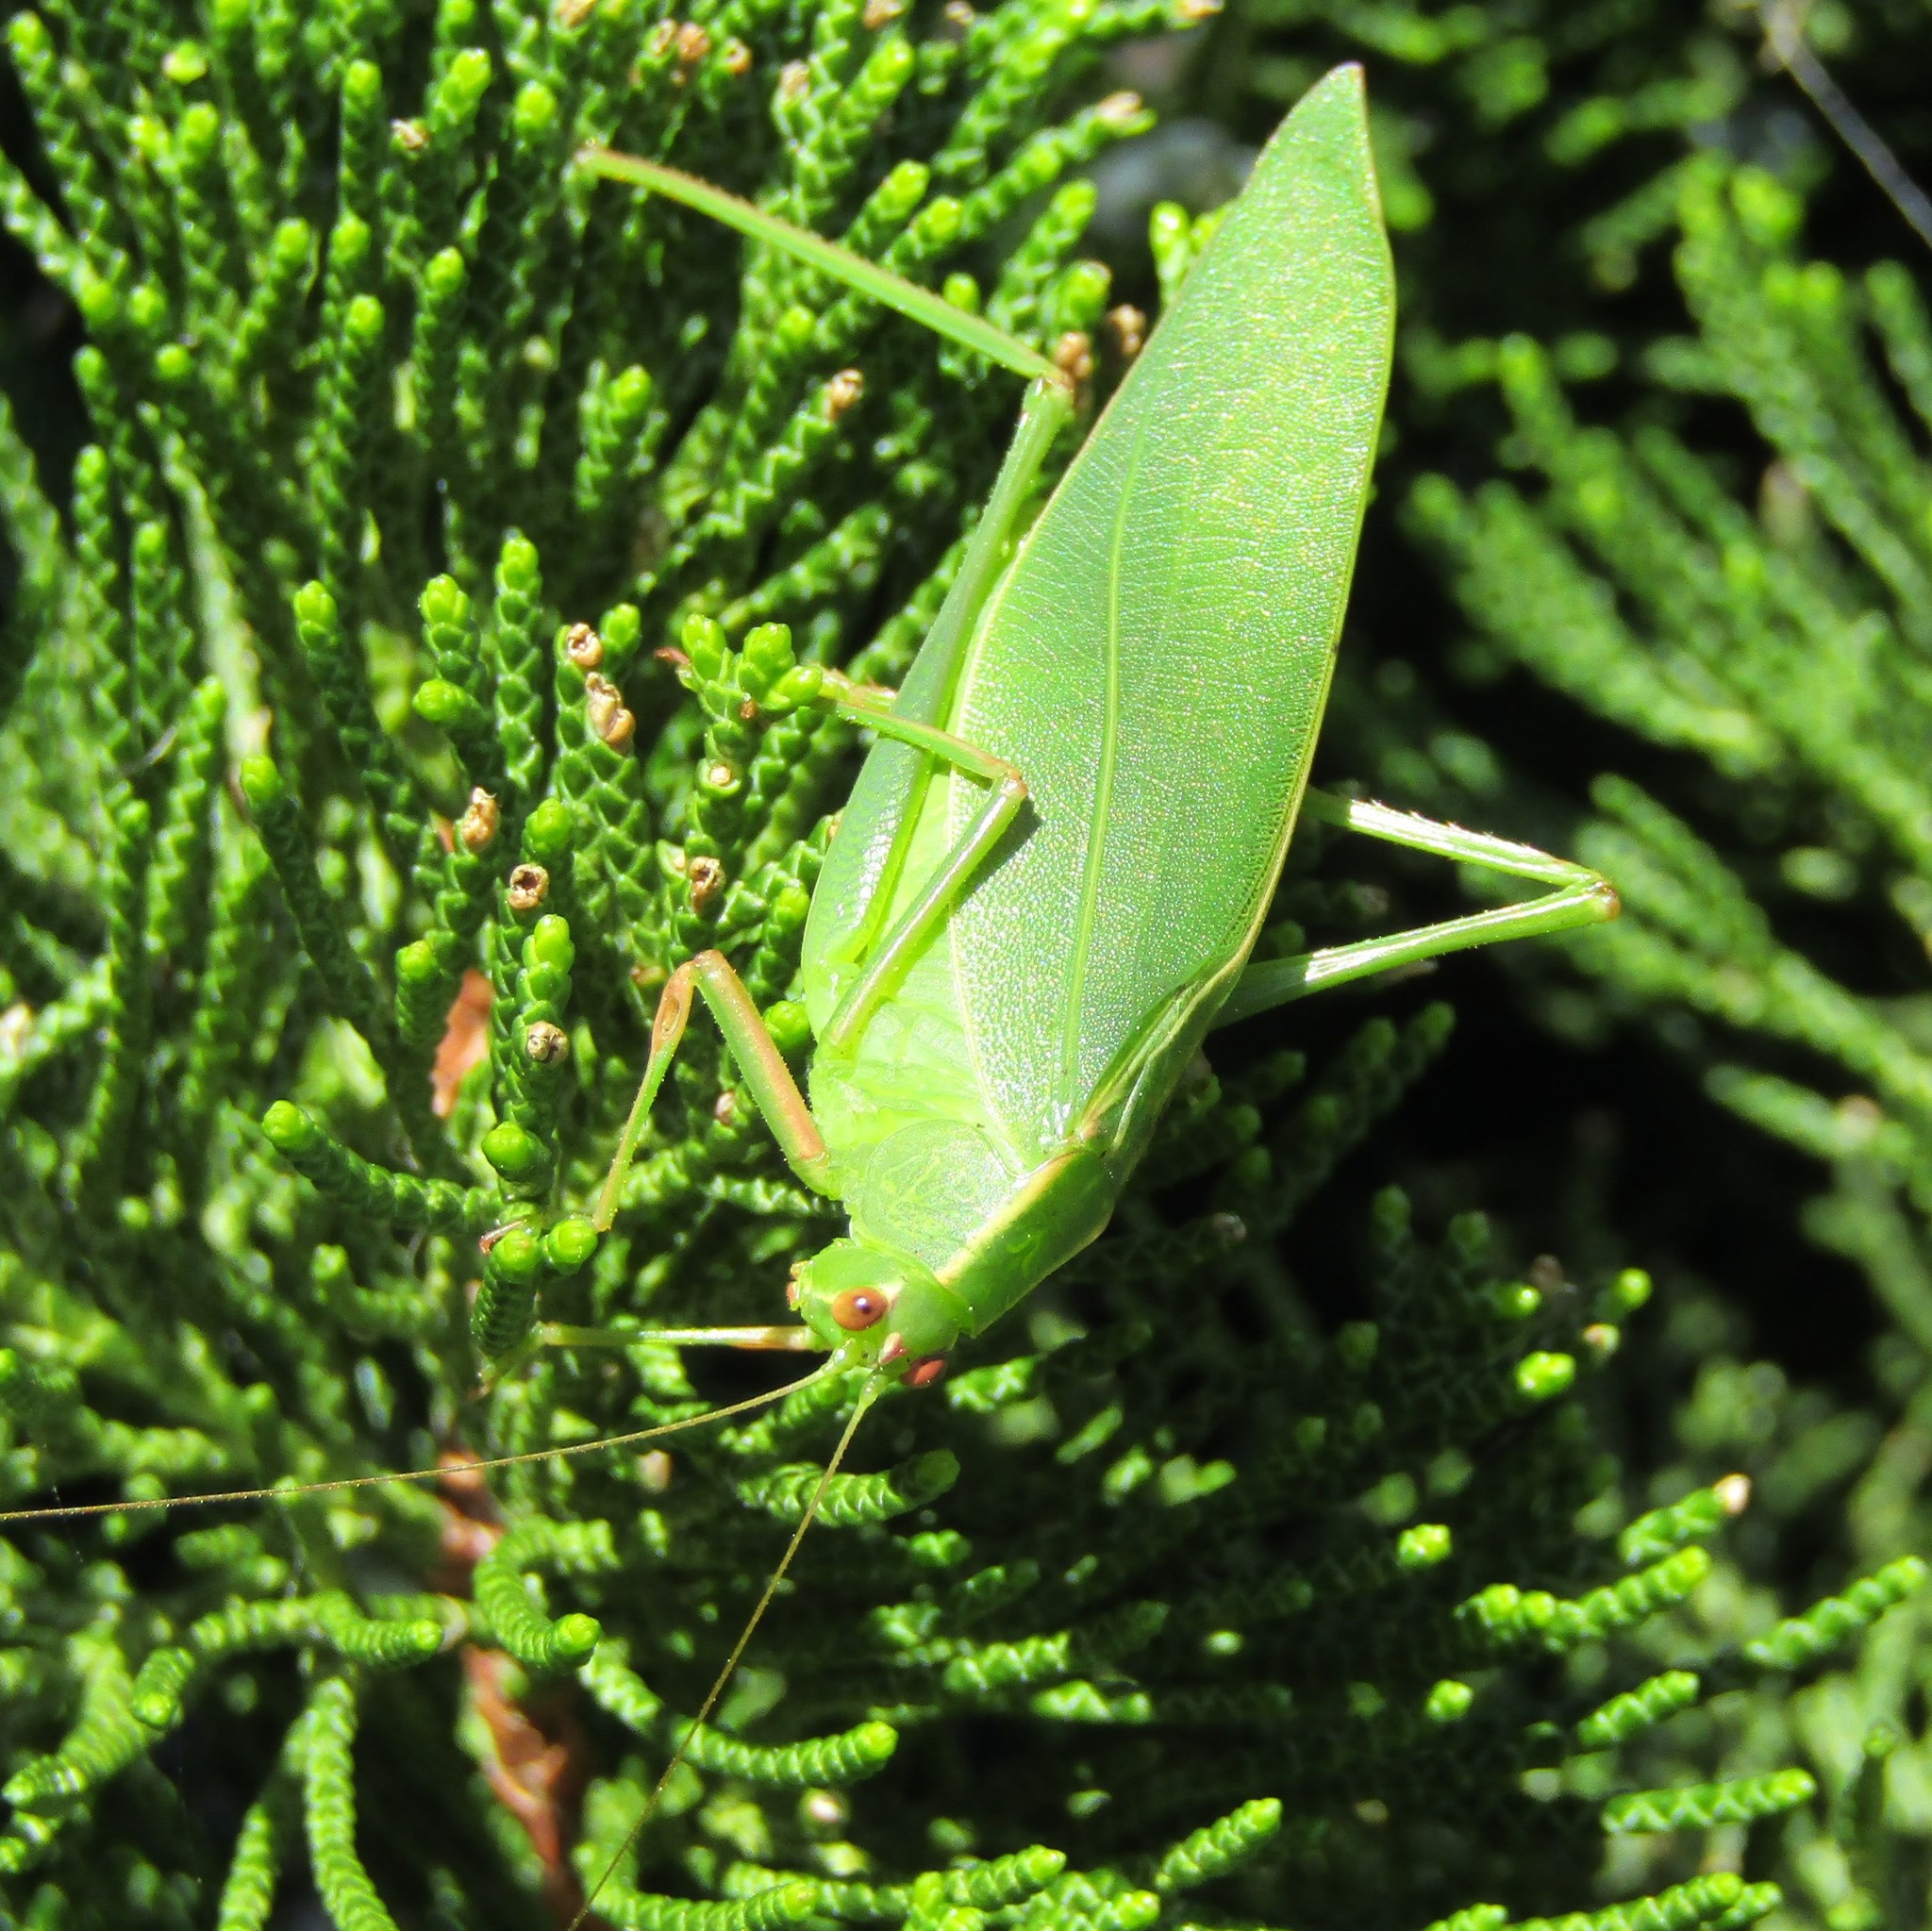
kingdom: Animalia
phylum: Arthropoda
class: Insecta
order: Orthoptera
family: Tettigoniidae
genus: Caedicia
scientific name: Caedicia simplex
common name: Common garden katydid
